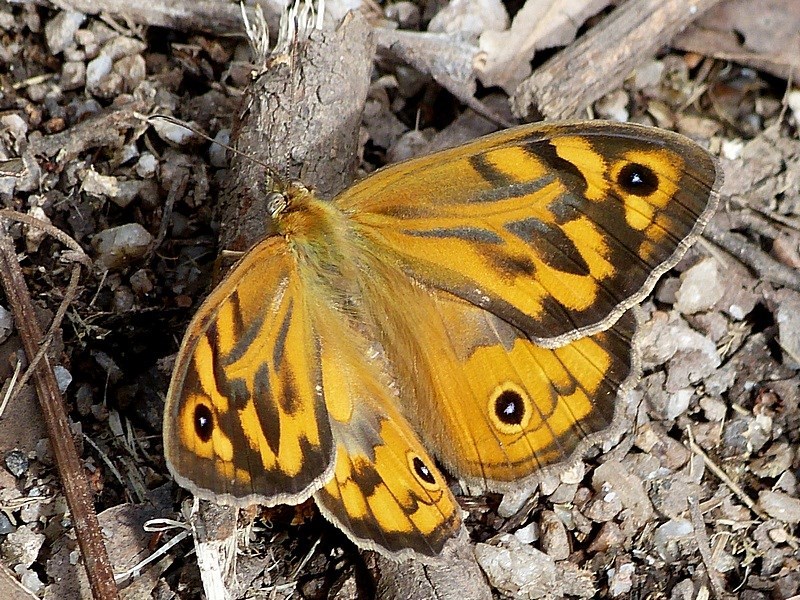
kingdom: Animalia
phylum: Arthropoda
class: Insecta
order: Lepidoptera
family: Nymphalidae
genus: Heteronympha
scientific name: Heteronympha merope
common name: Common brown
